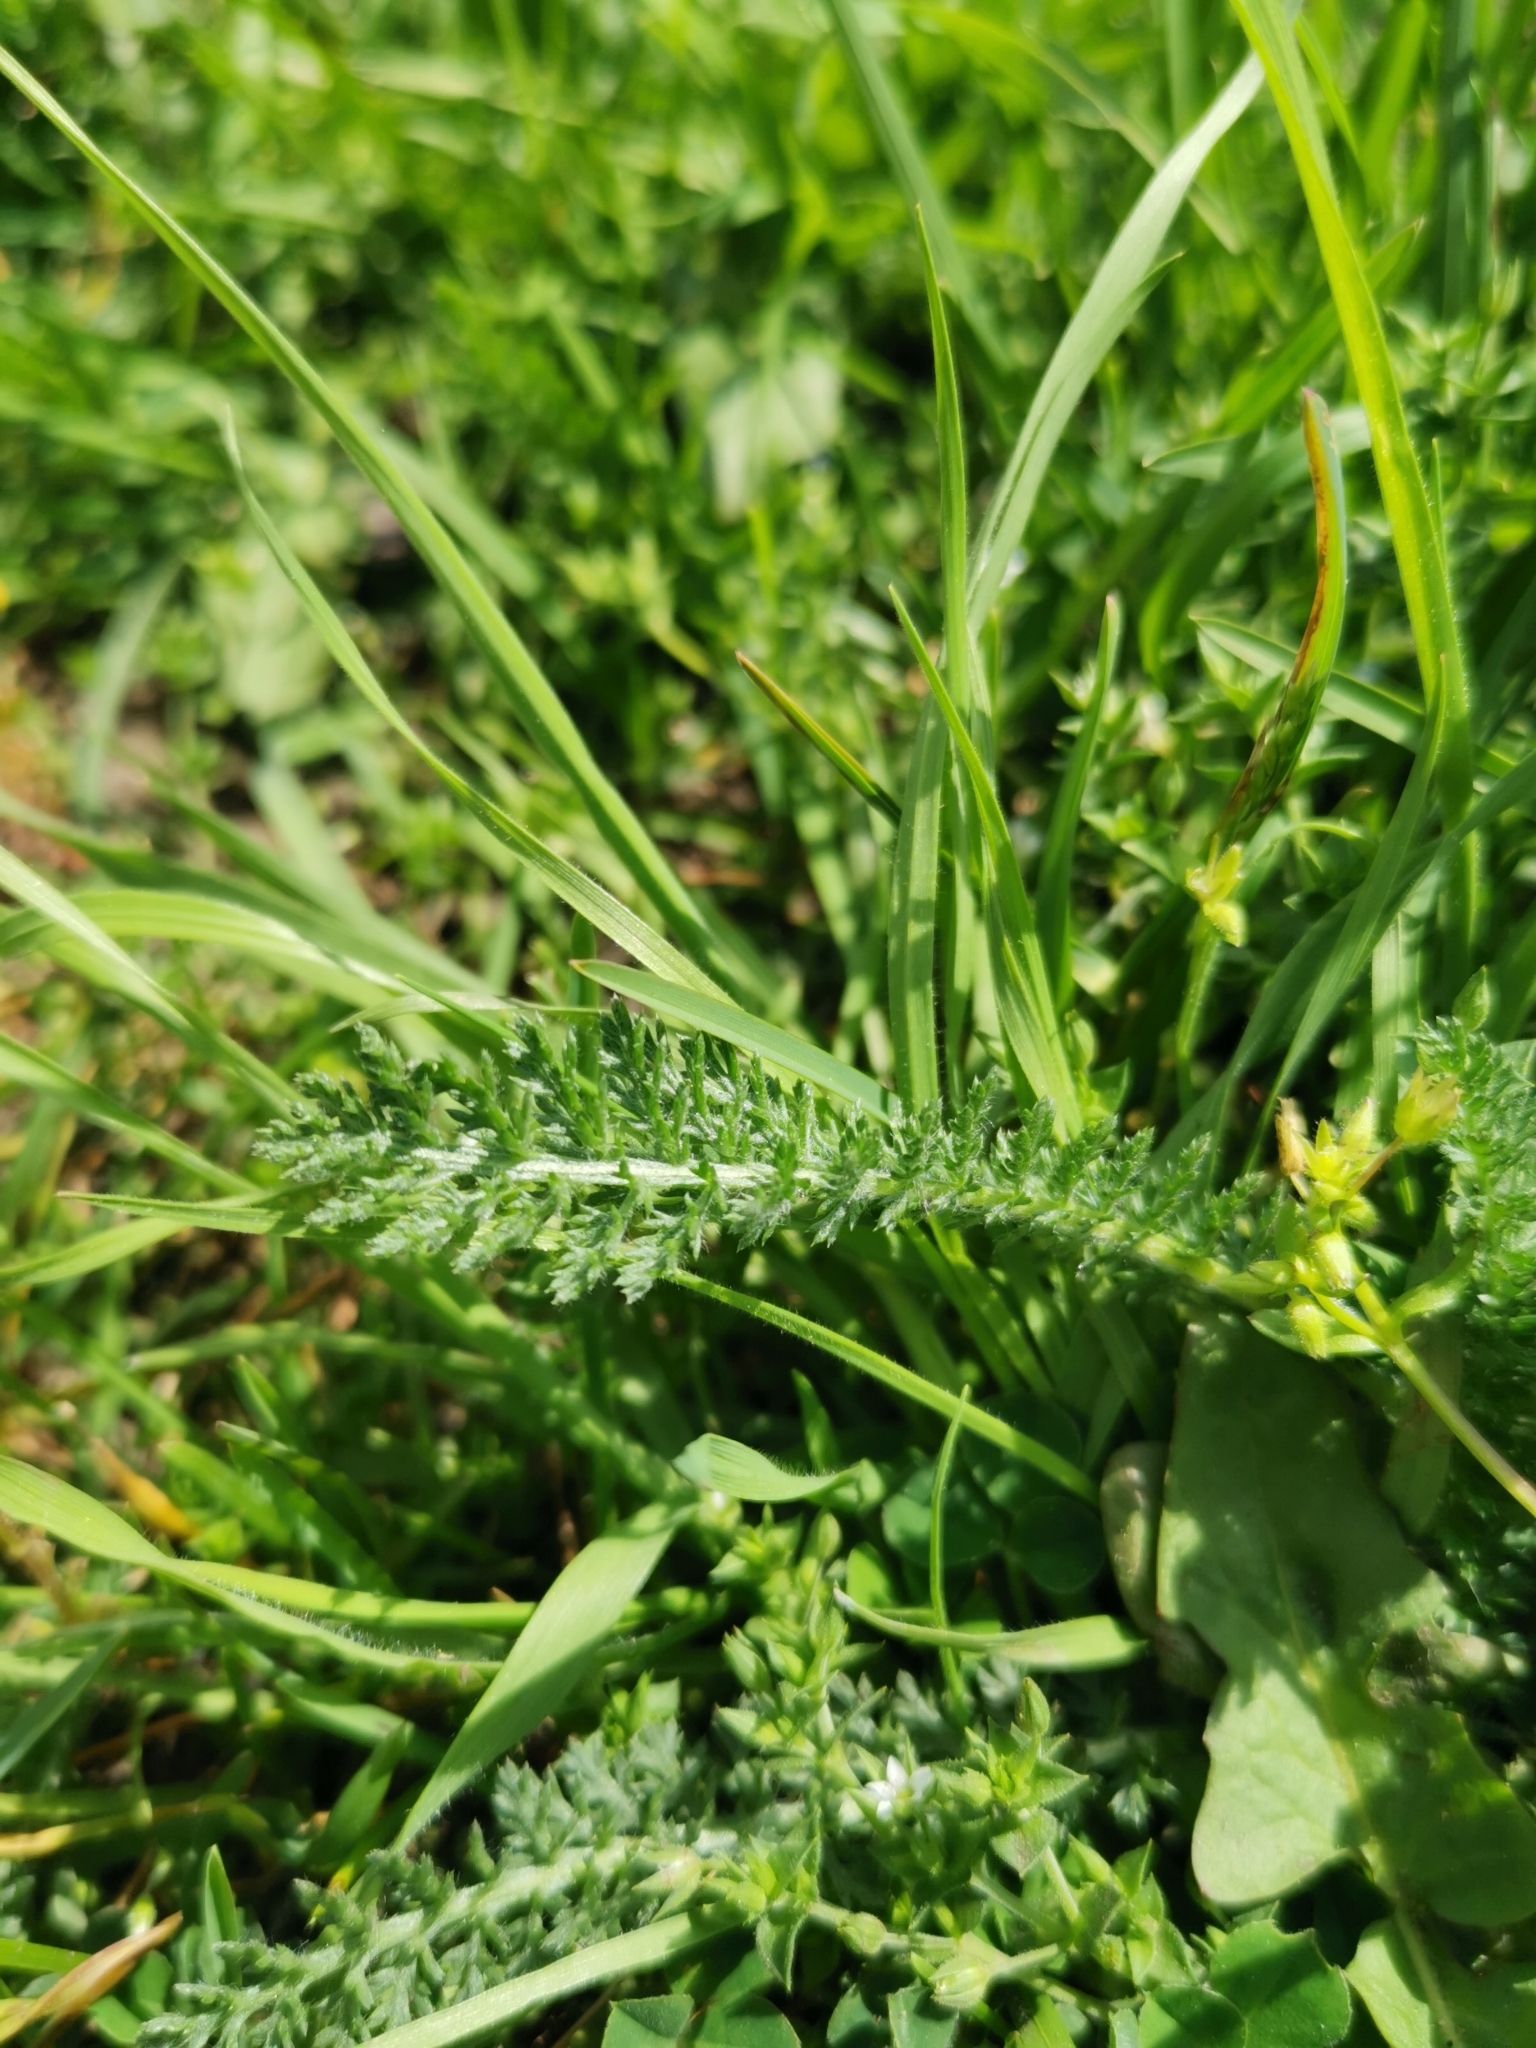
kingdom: Plantae
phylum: Tracheophyta
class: Magnoliopsida
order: Asterales
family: Asteraceae
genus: Achillea
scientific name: Achillea millefolium
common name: Yarrow
